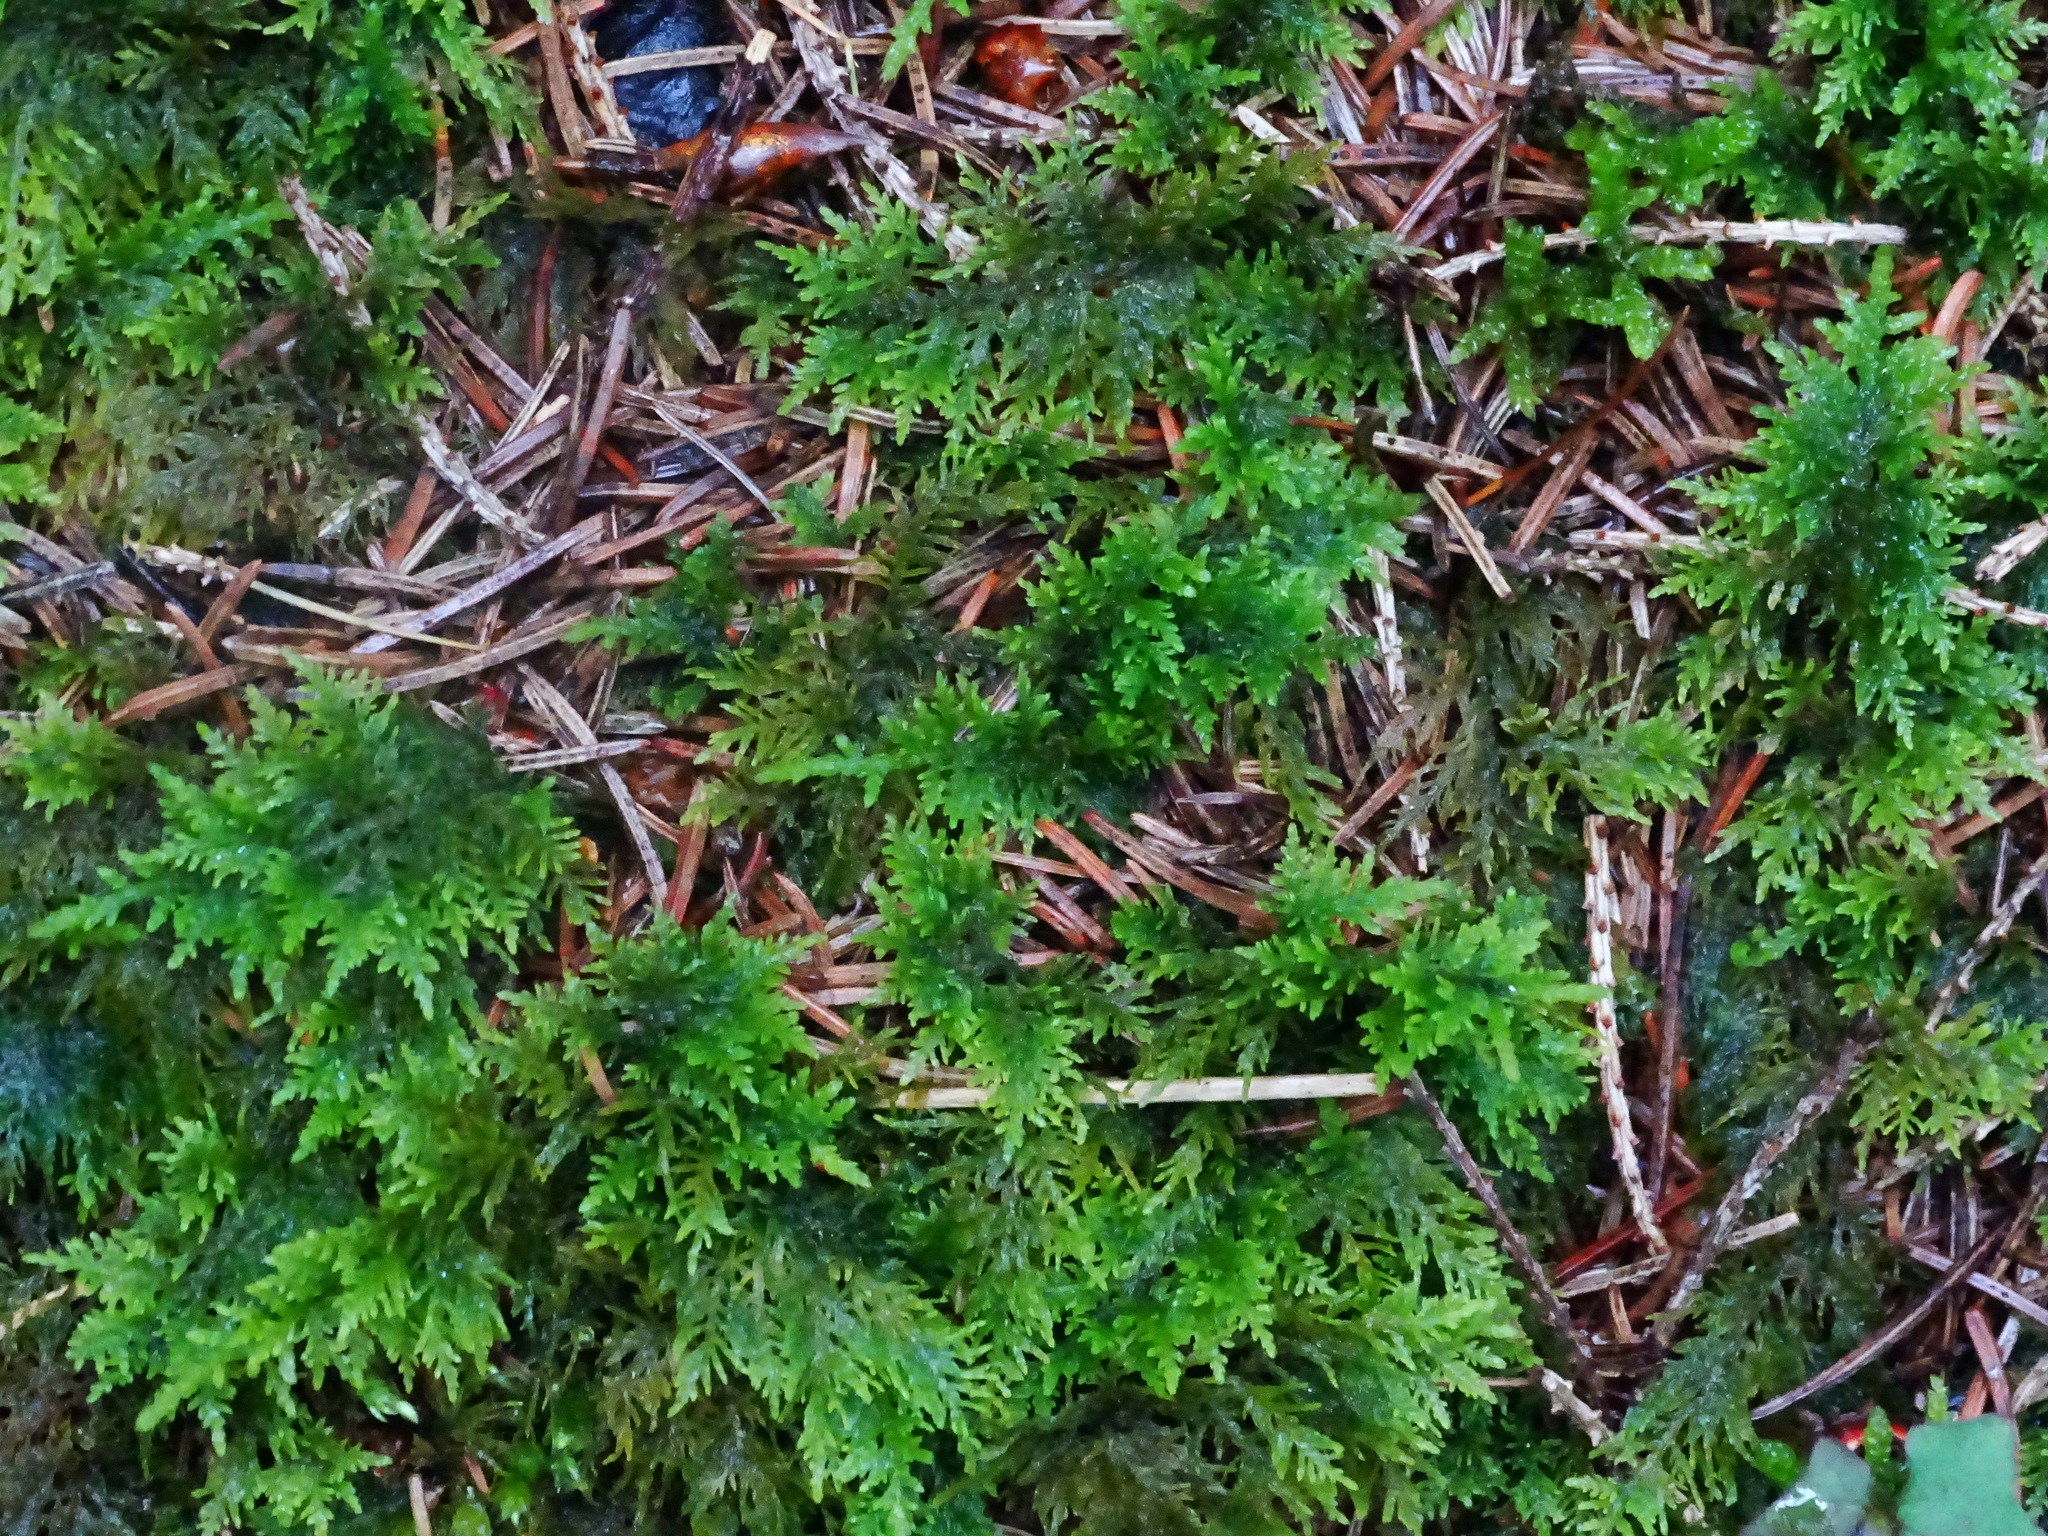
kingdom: Plantae
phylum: Bryophyta
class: Bryopsida
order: Hypnales
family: Thuidiaceae
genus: Thuidium
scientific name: Thuidium tamariscinum
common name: Common tamarisk-moss
